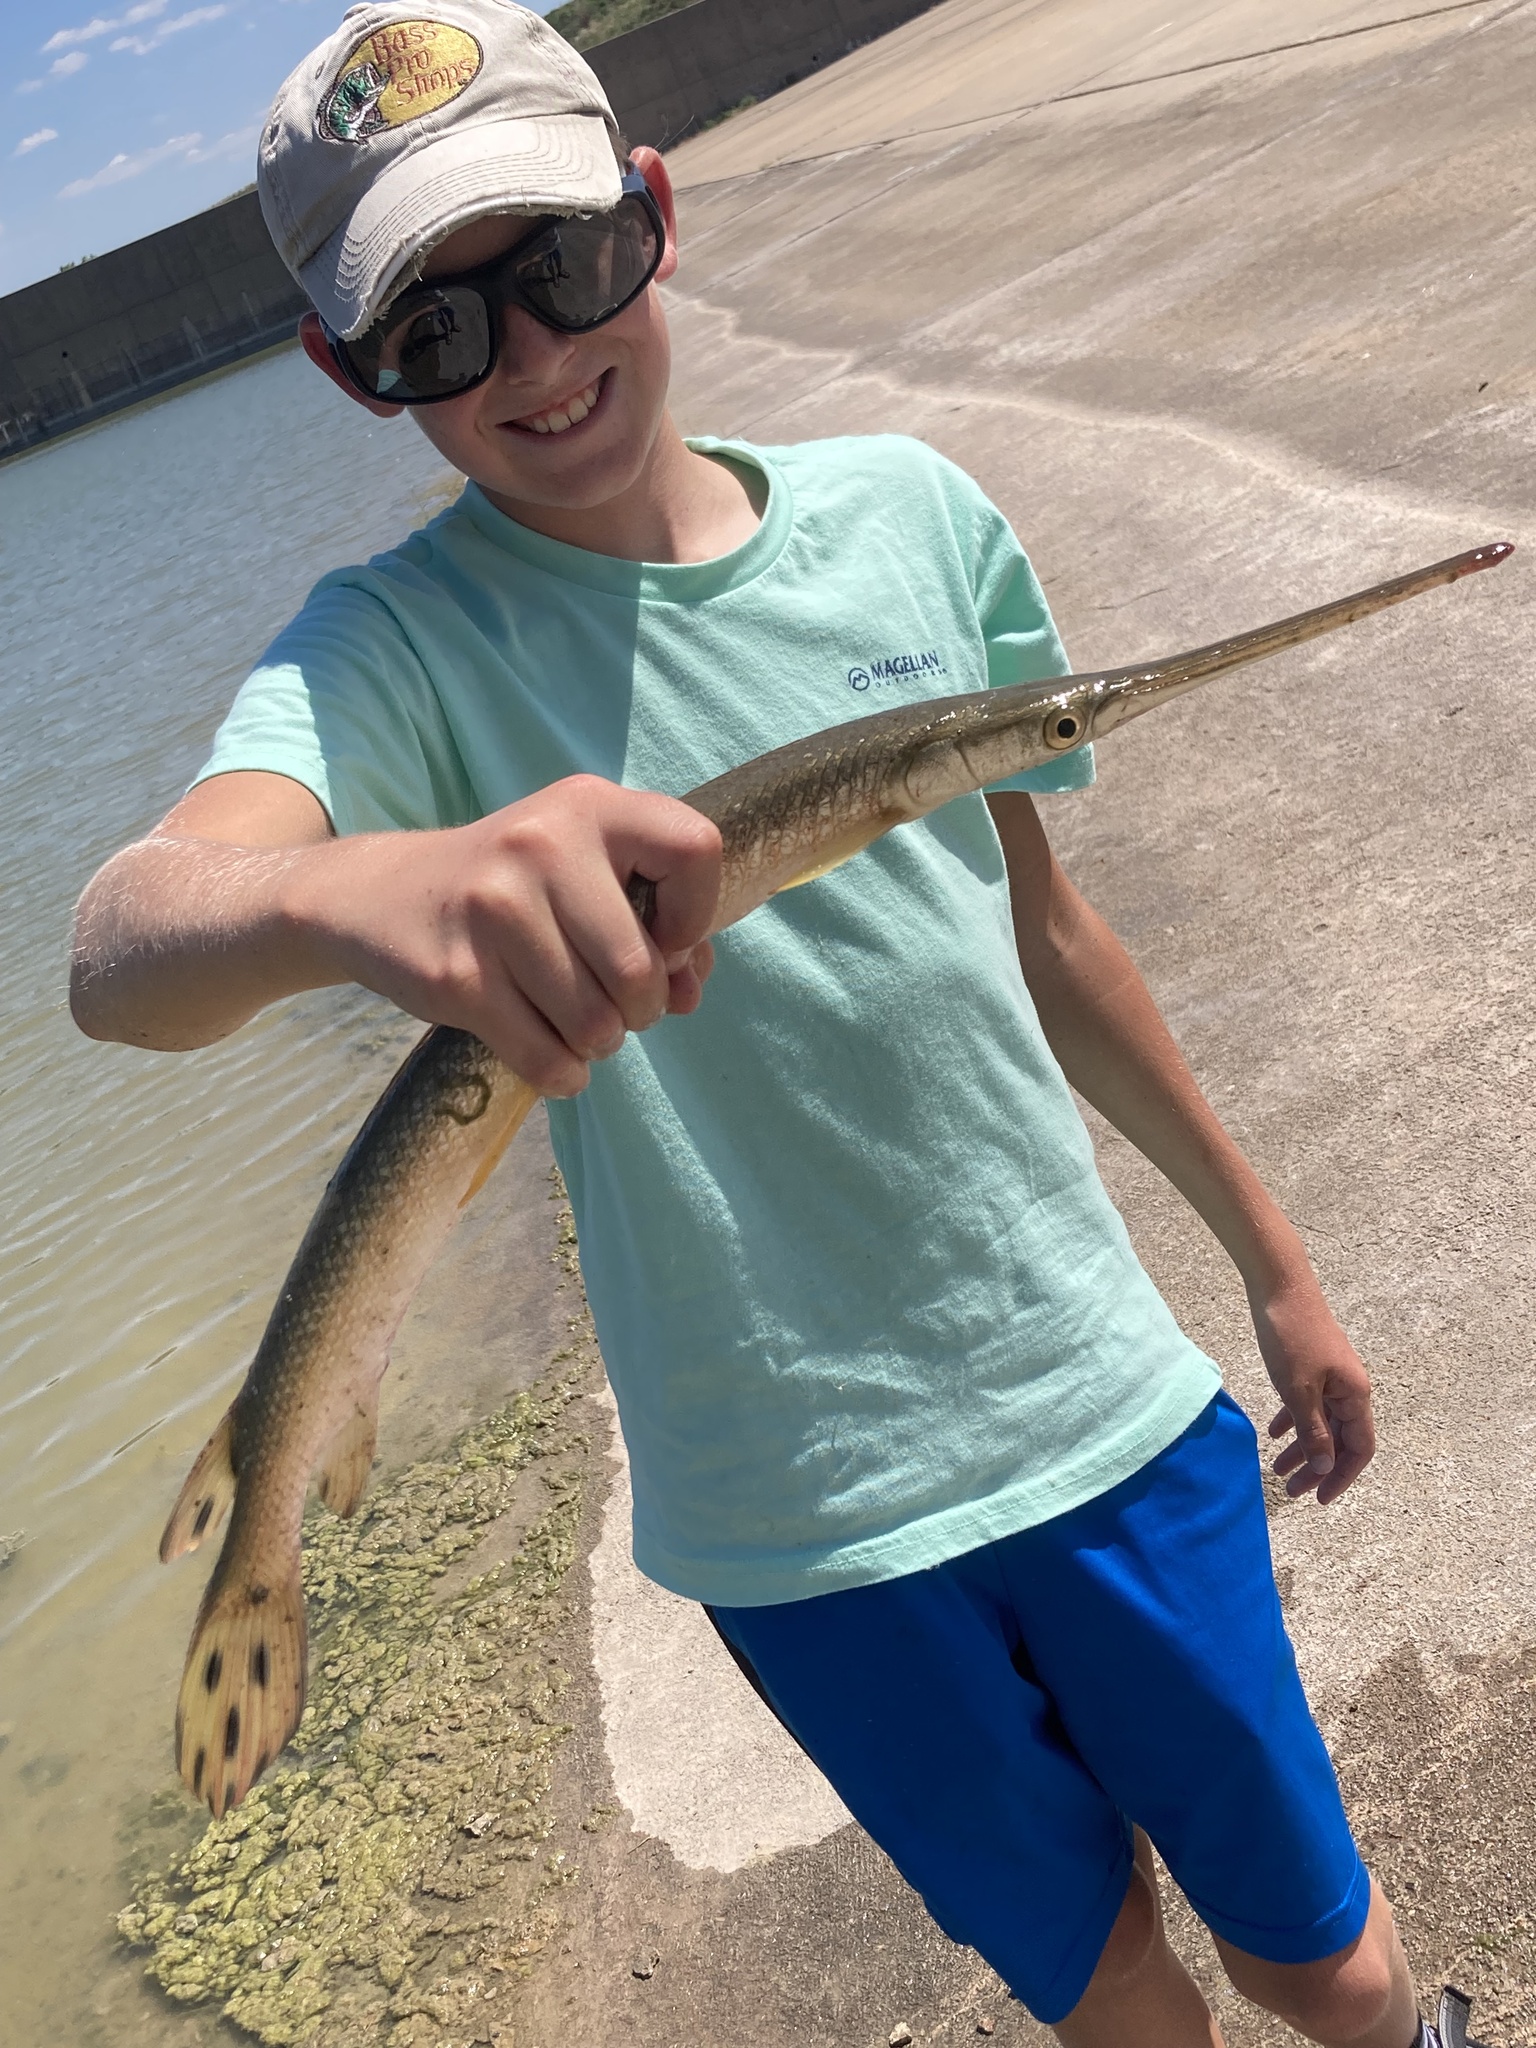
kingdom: Animalia
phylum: Chordata
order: Lepisosteiformes
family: Lepisosteidae
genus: Lepisosteus
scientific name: Lepisosteus osseus
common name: Longnose gar
